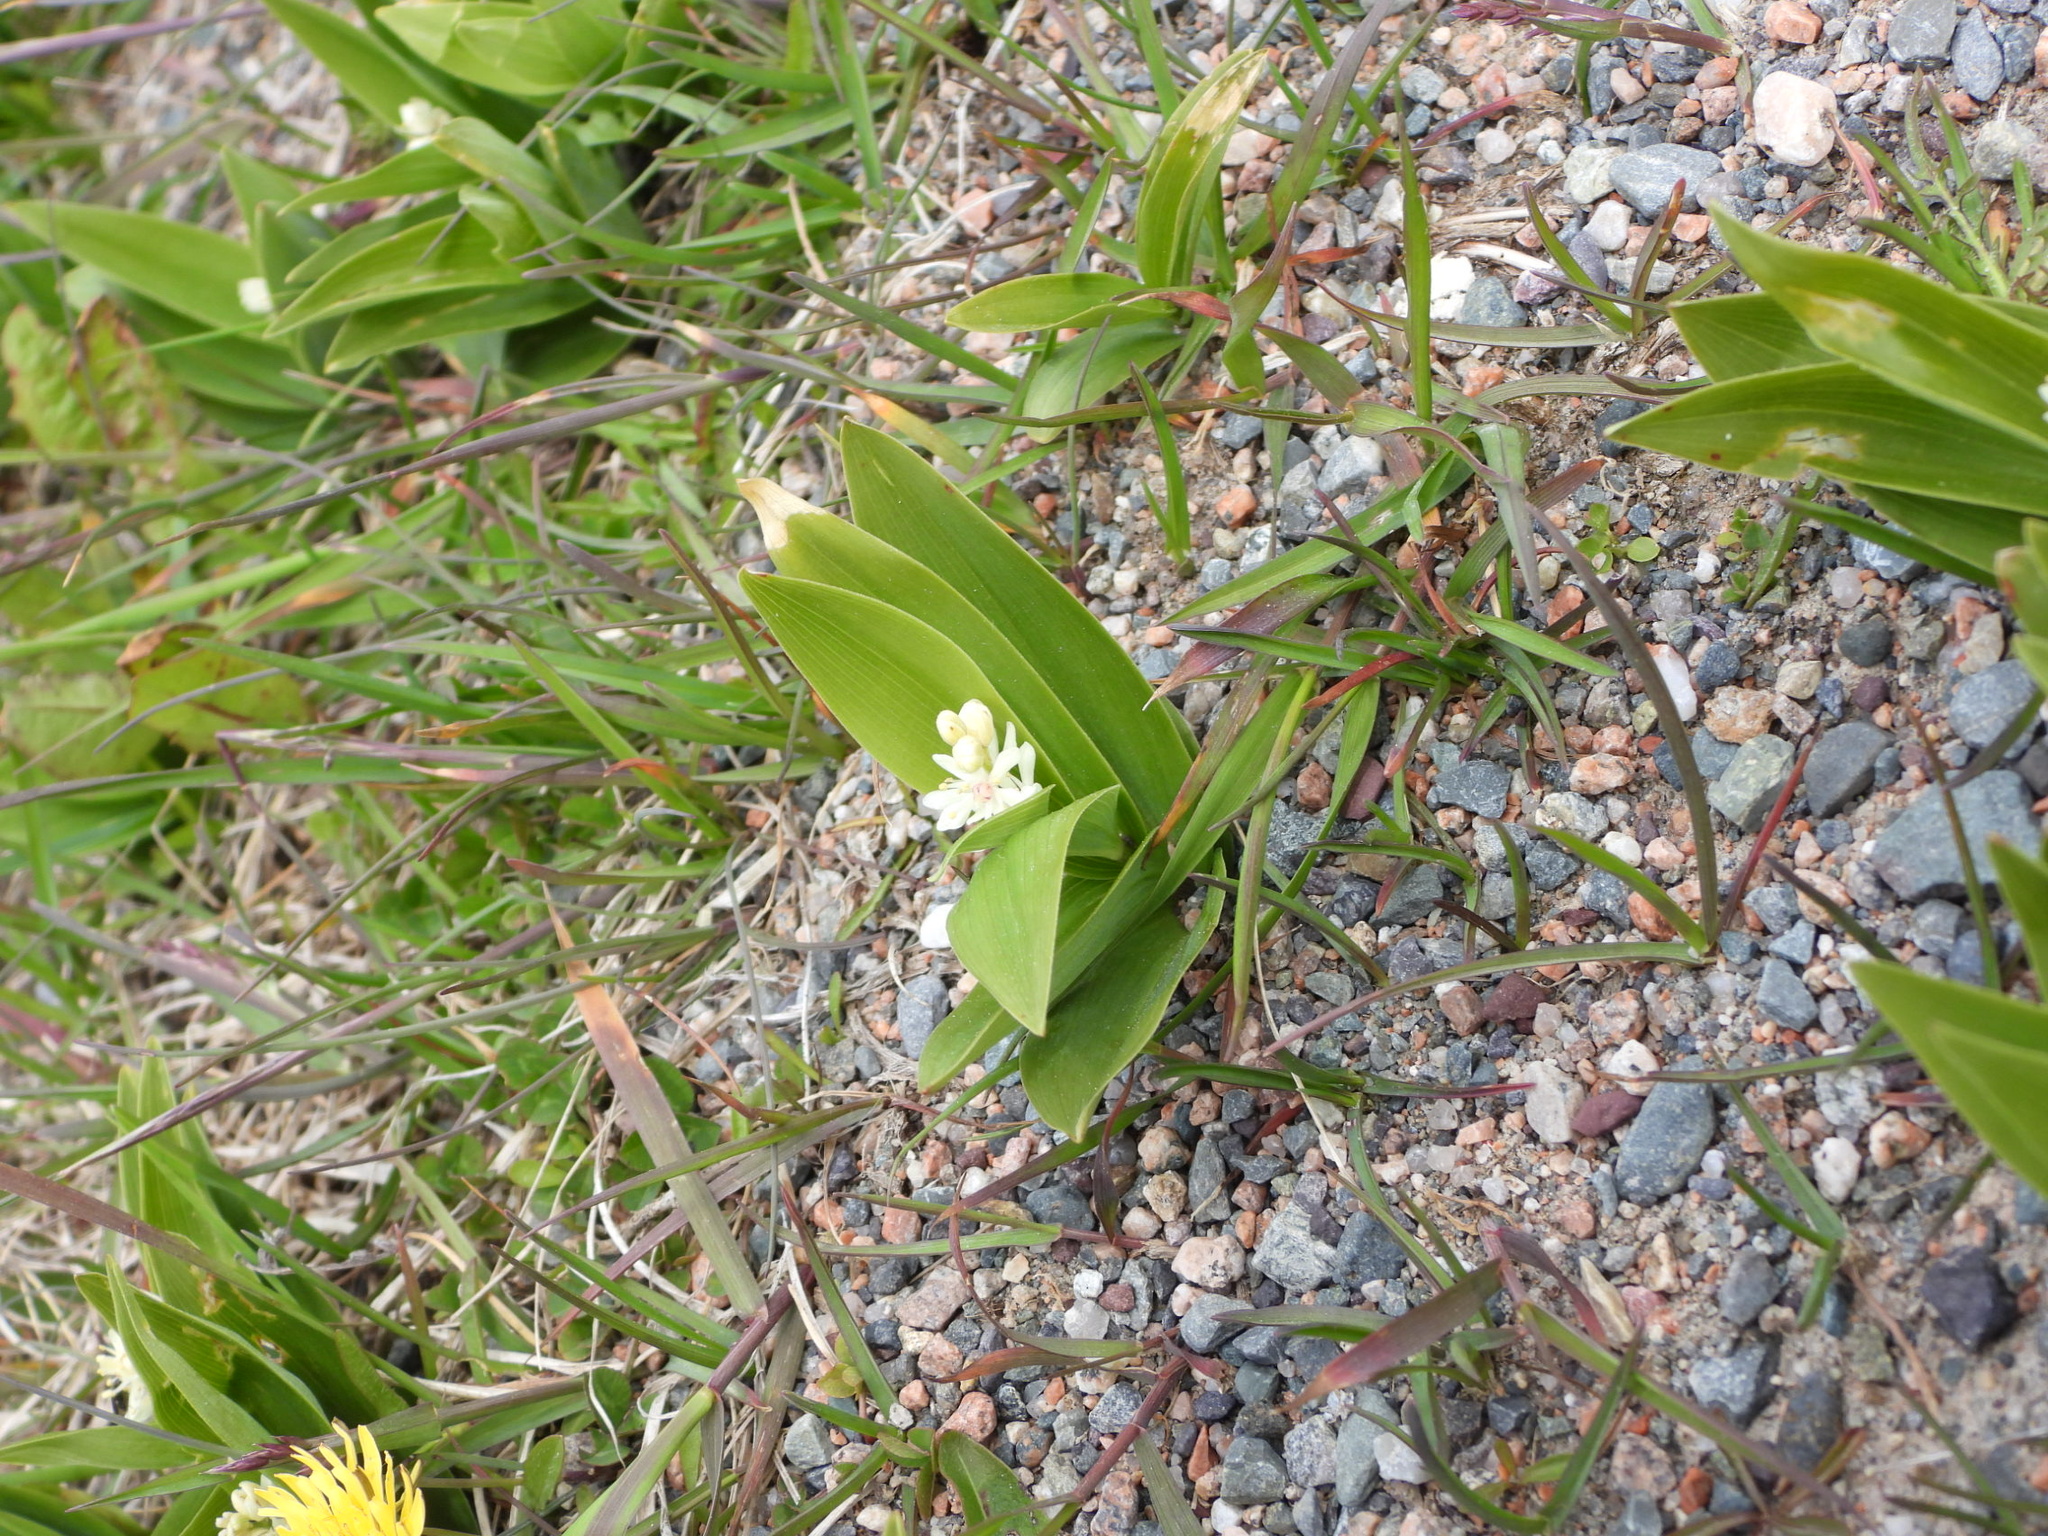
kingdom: Plantae
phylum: Tracheophyta
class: Liliopsida
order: Asparagales
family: Asparagaceae
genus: Maianthemum
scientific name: Maianthemum stellatum
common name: Little false solomon's seal
